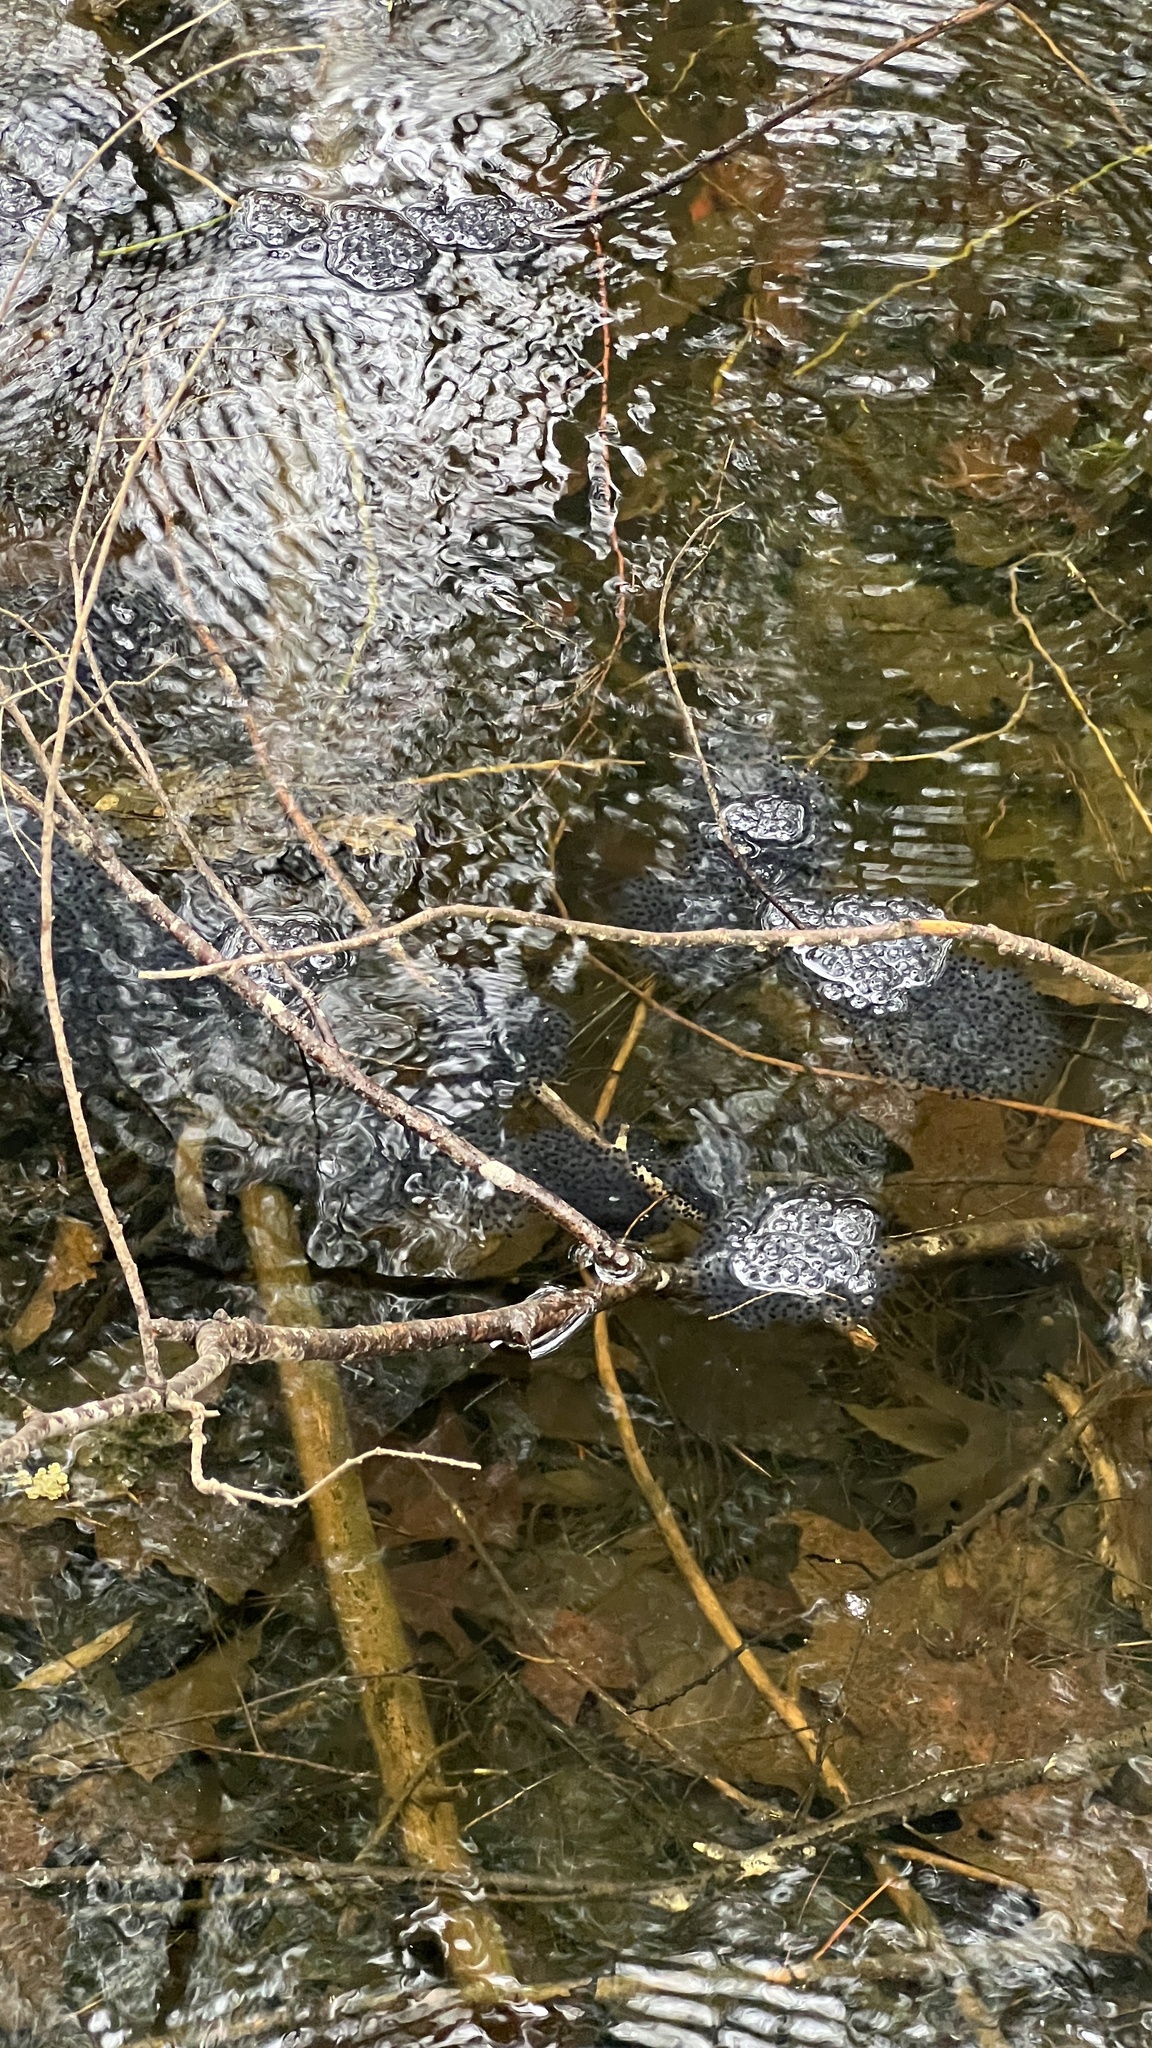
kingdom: Animalia
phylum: Chordata
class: Amphibia
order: Anura
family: Ranidae
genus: Lithobates
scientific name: Lithobates sylvaticus
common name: Wood frog
